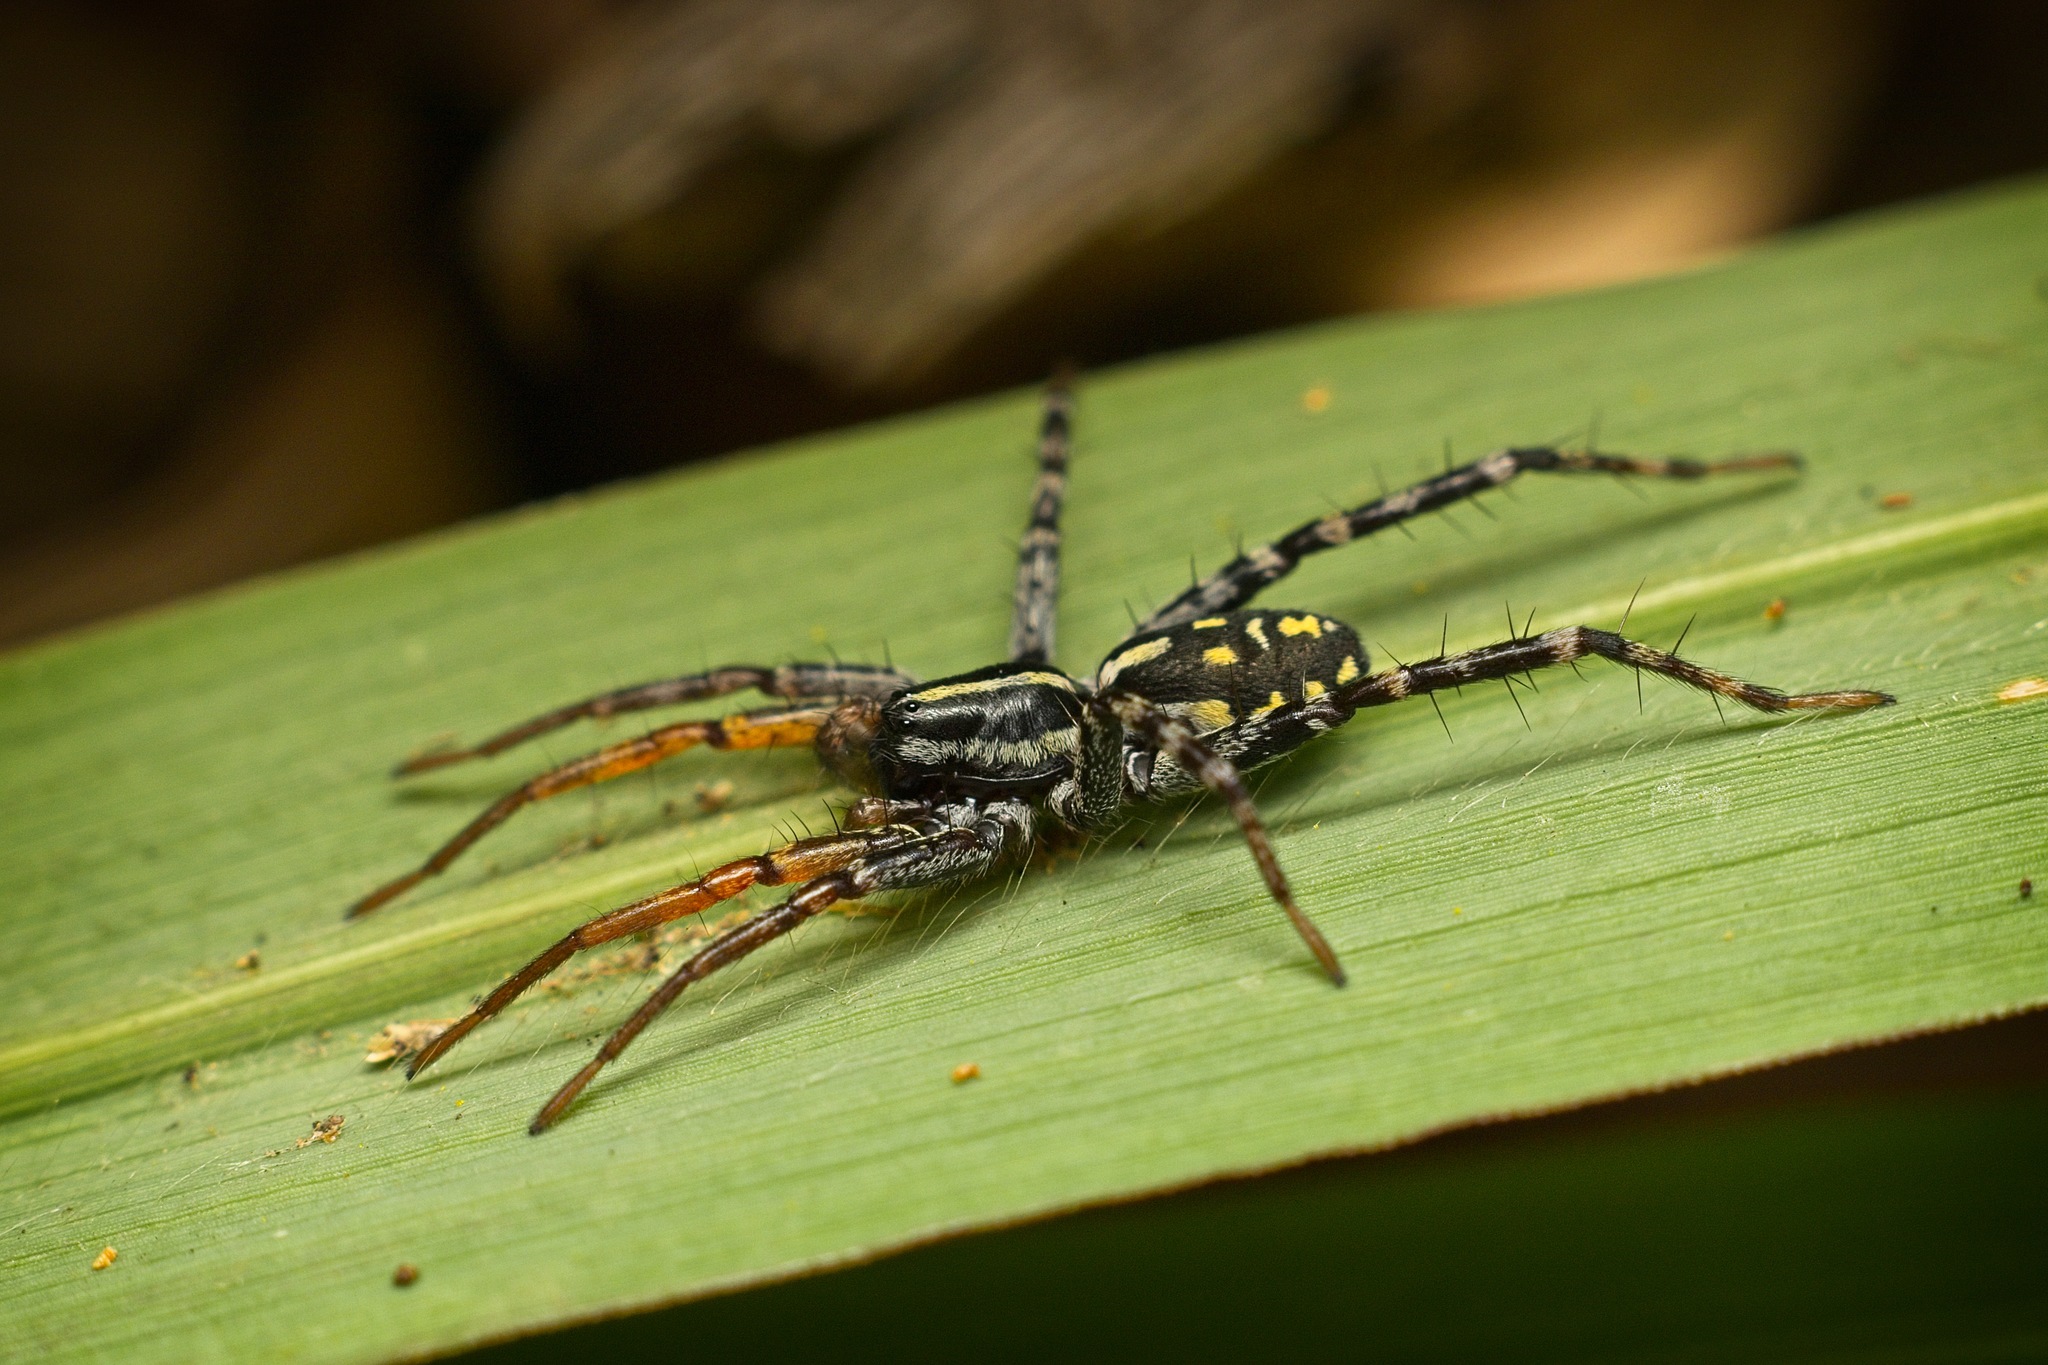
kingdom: Animalia
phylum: Arthropoda
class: Arachnida
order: Araneae
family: Corinnidae
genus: Nyssus
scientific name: Nyssus coloripes
